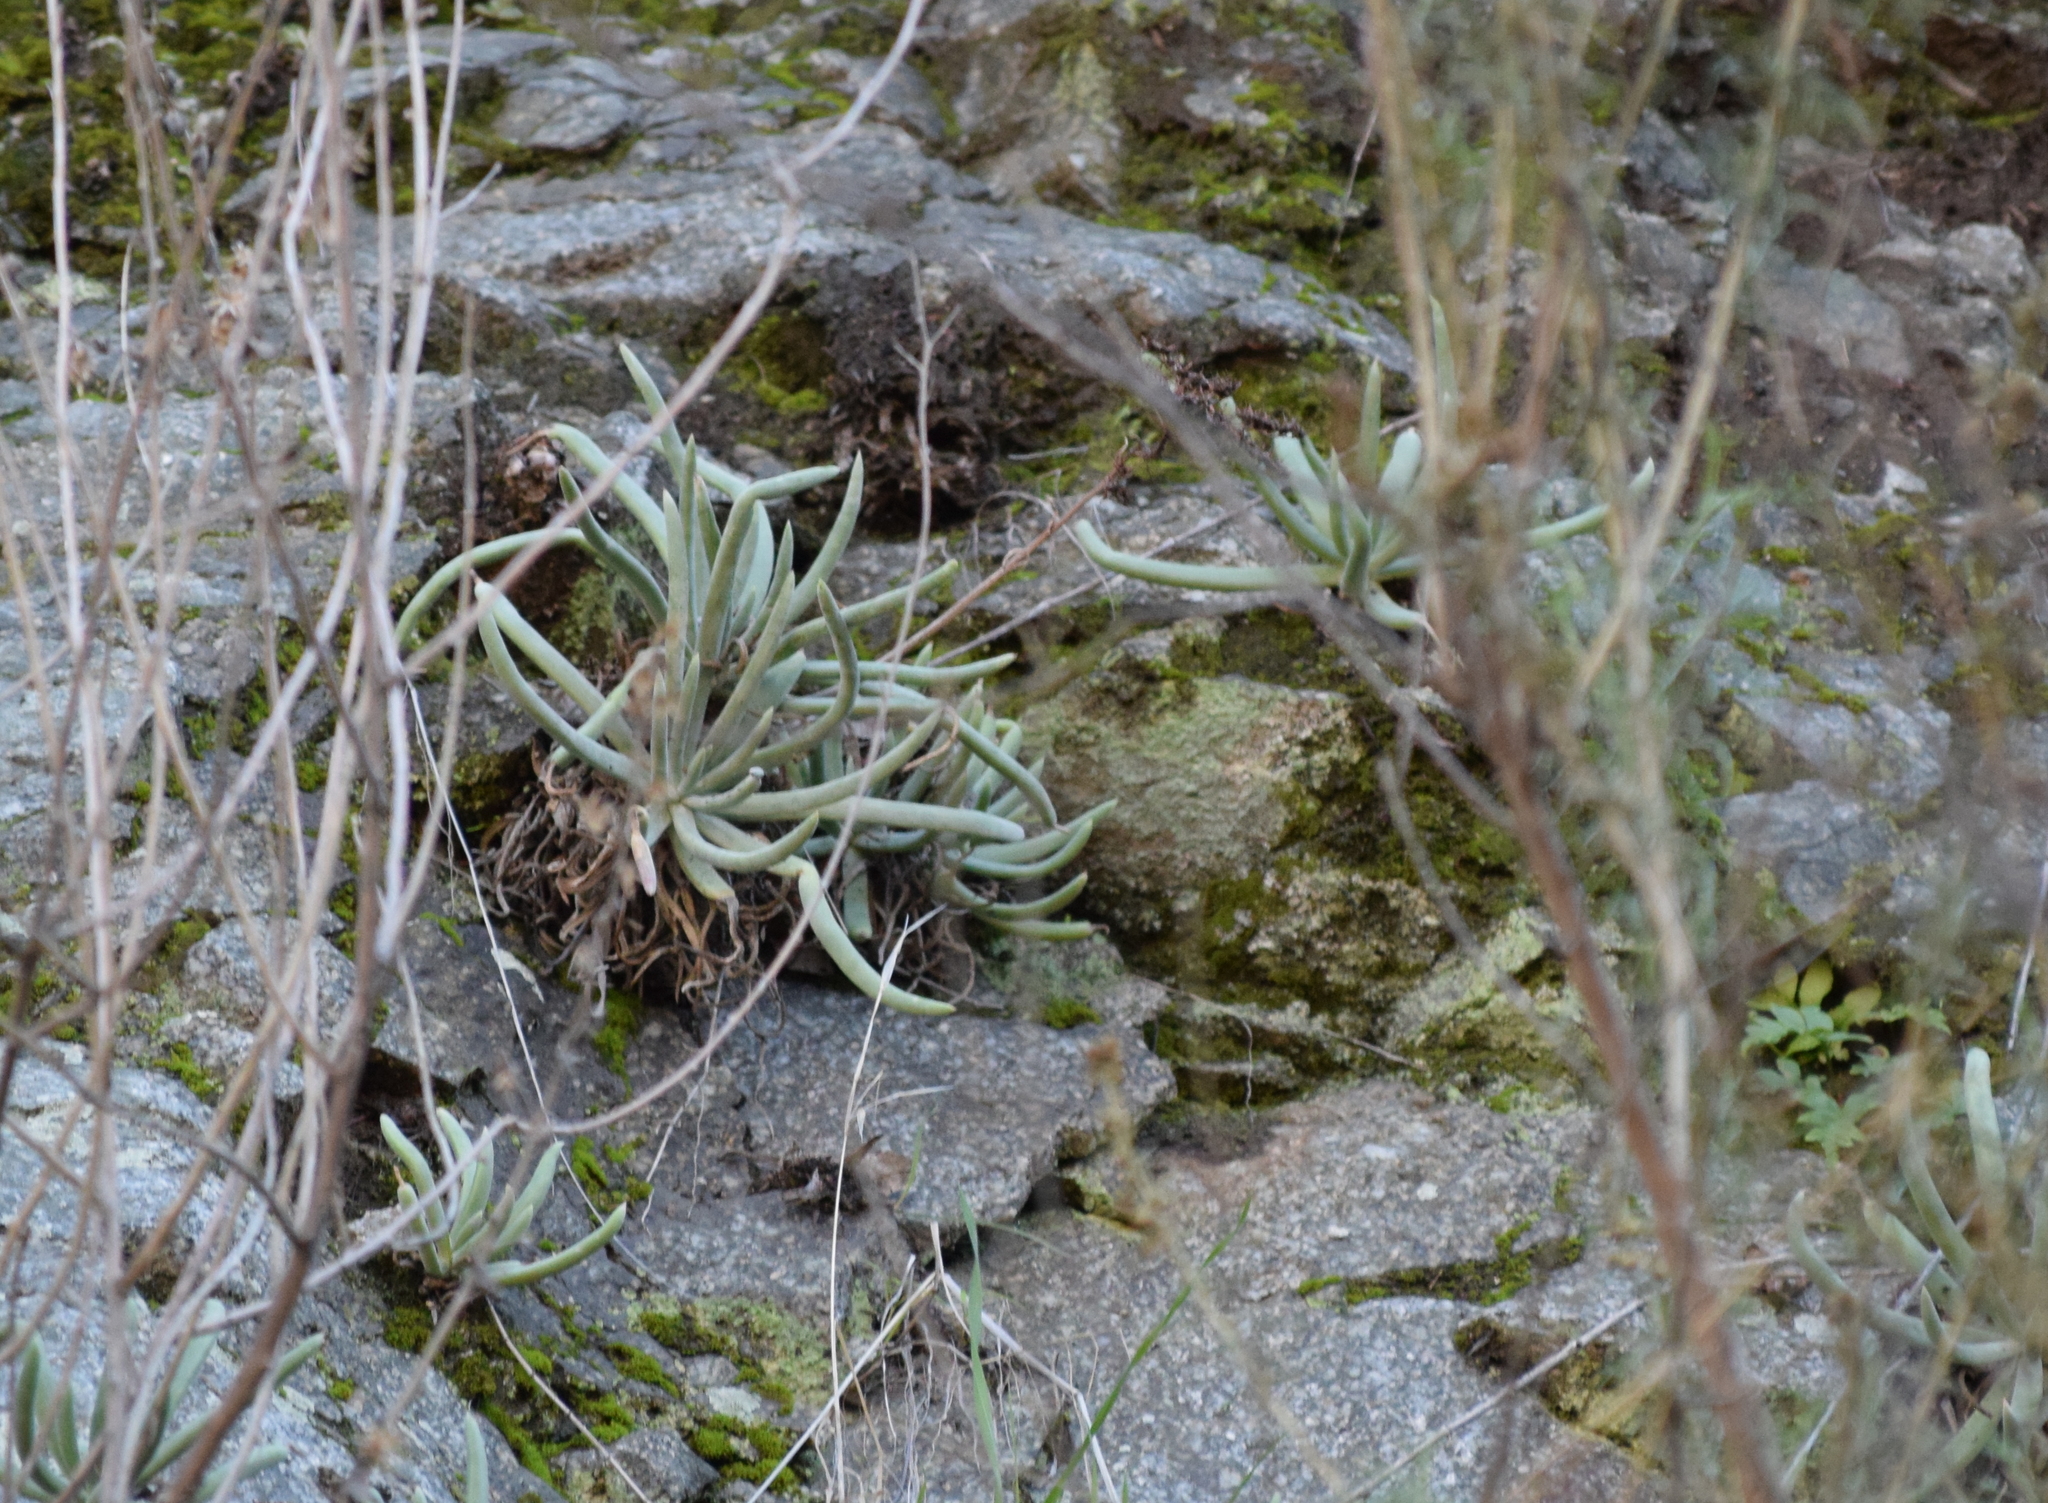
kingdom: Plantae
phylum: Tracheophyta
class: Magnoliopsida
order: Saxifragales
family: Crassulaceae
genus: Dudleya
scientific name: Dudleya densiflora
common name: San gabriel mountains dudleya
